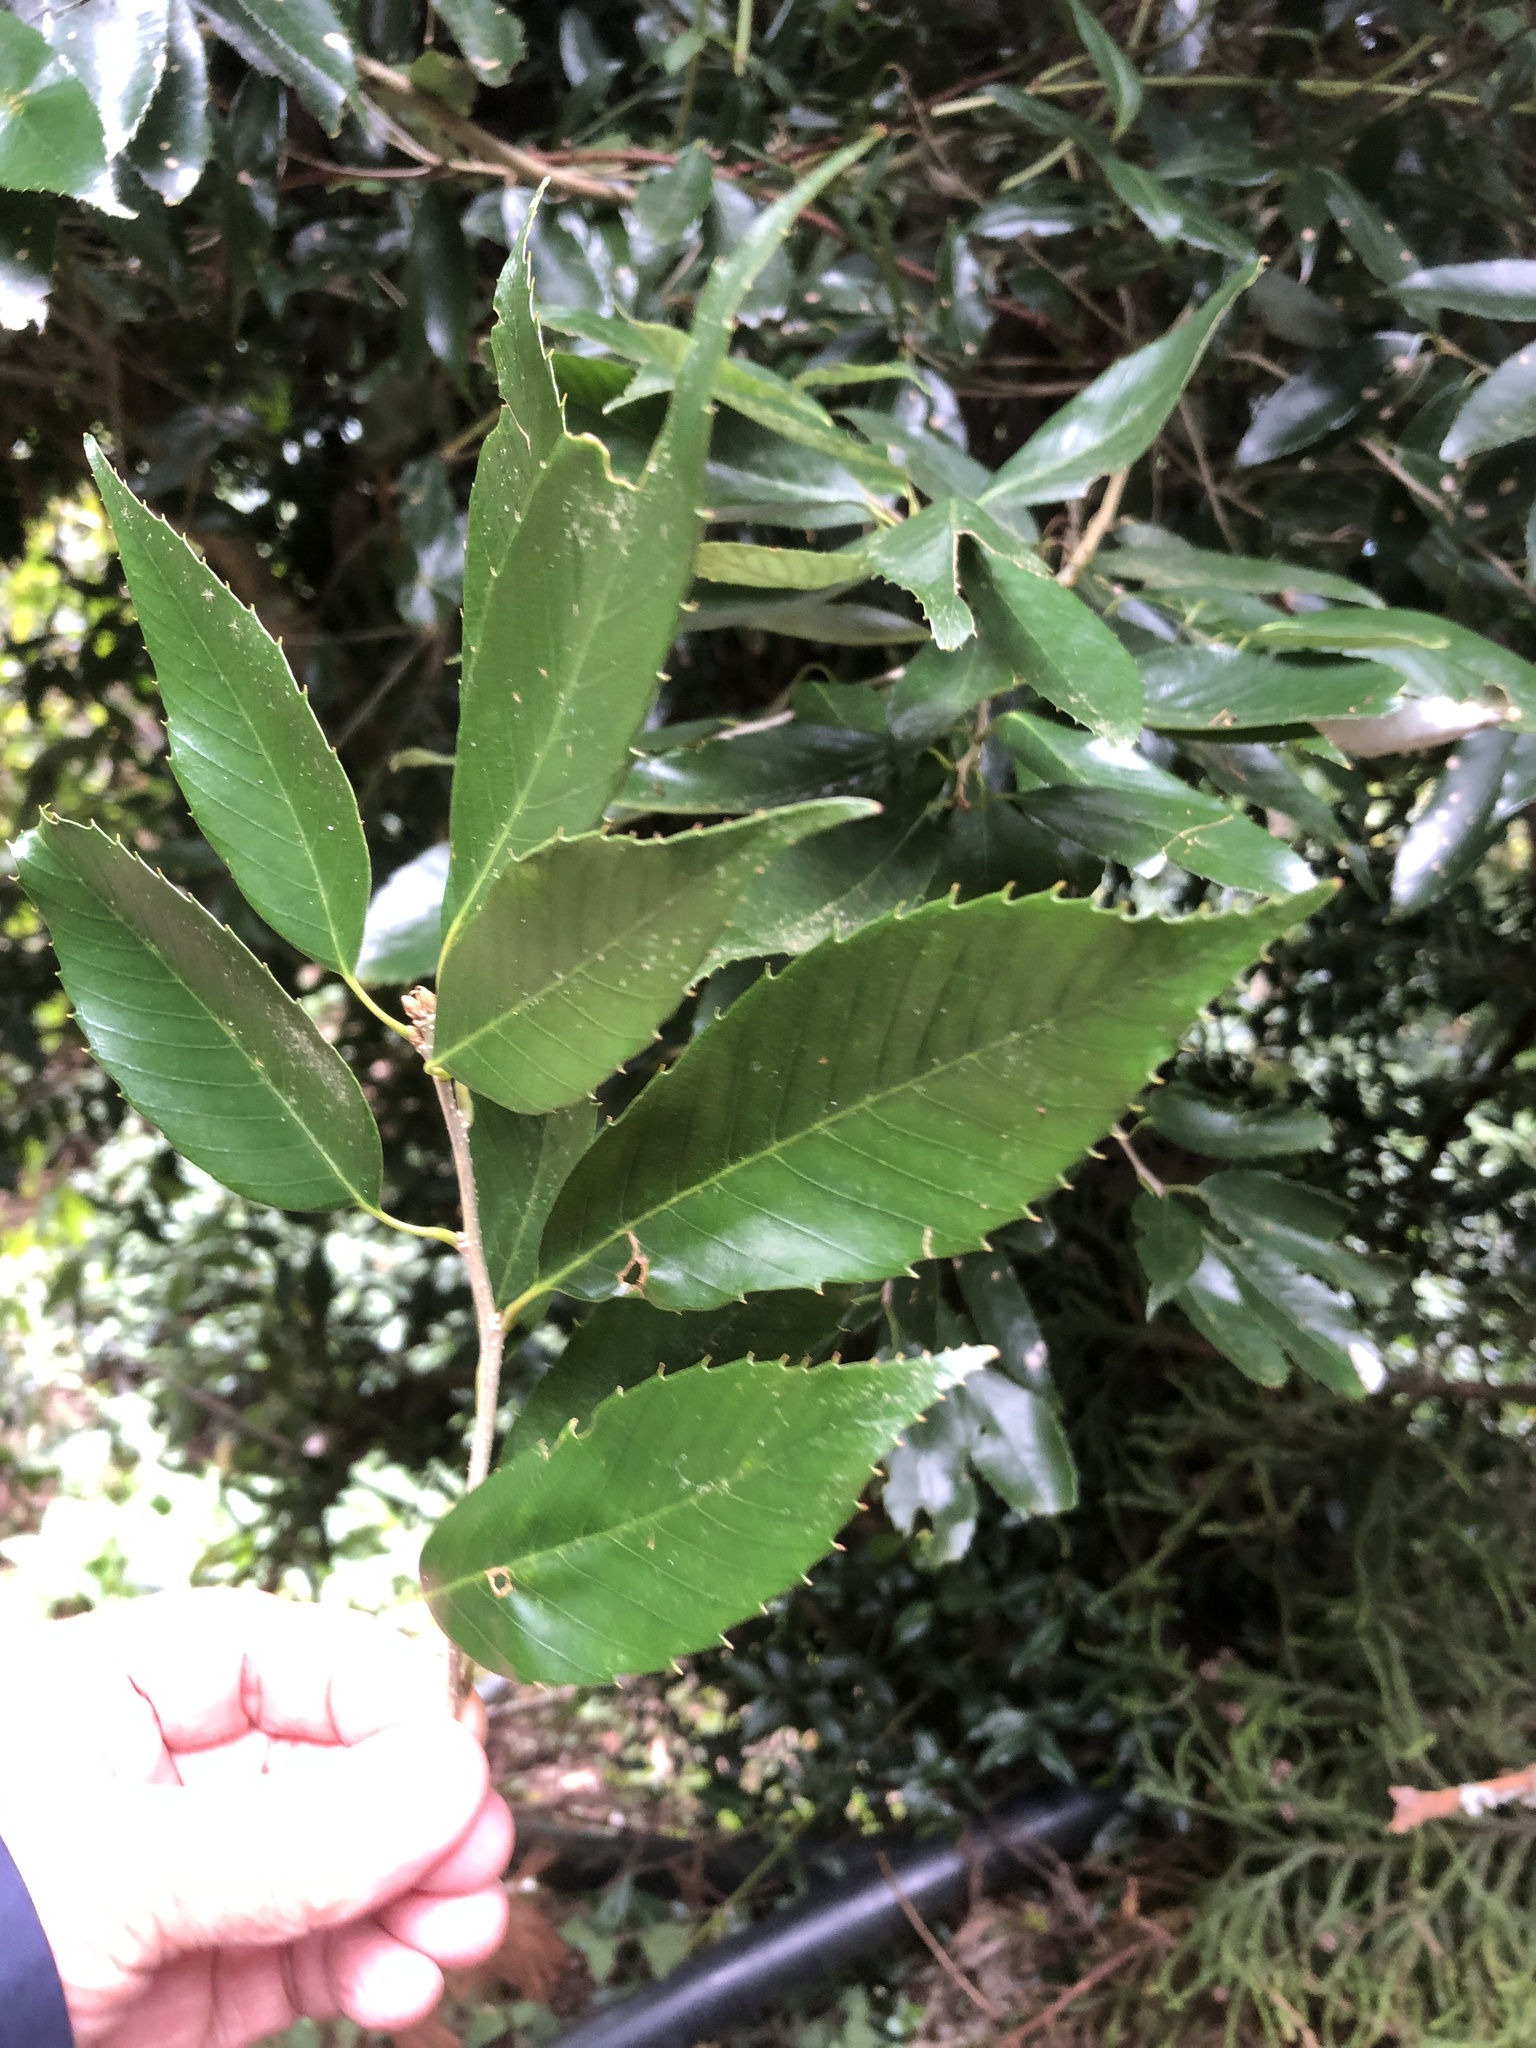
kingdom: Plantae
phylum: Tracheophyta
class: Magnoliopsida
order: Fagales
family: Fagaceae
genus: Quercus
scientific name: Quercus stenophylloides
